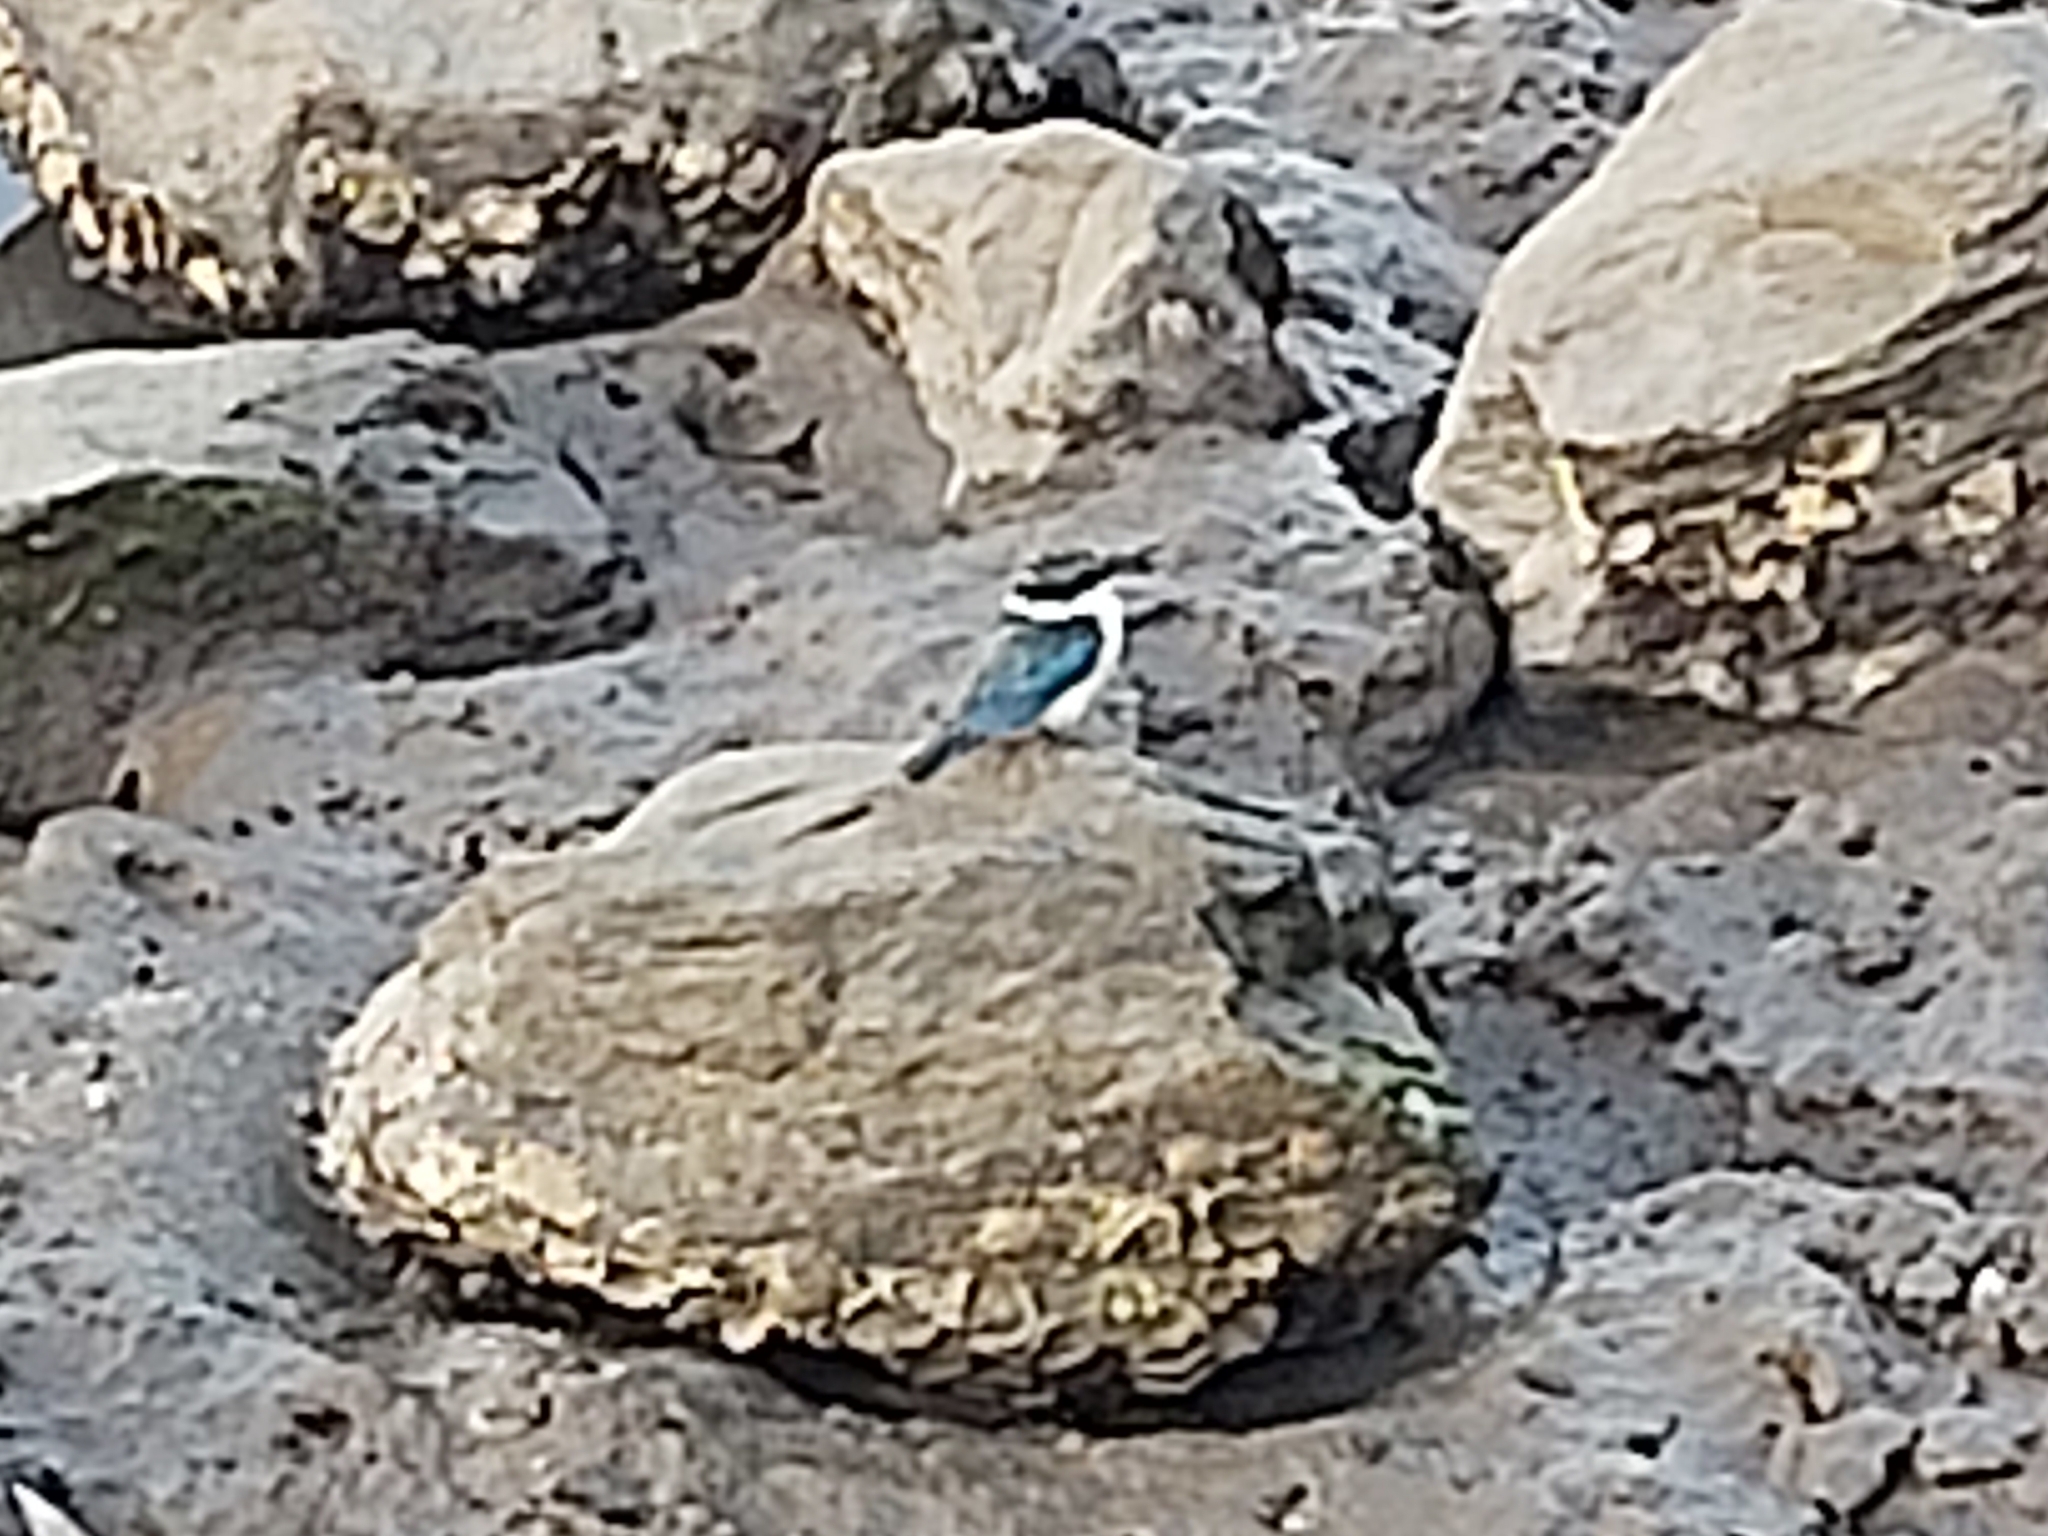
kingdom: Animalia
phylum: Chordata
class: Aves
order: Coraciiformes
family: Alcedinidae
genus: Todiramphus
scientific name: Todiramphus sanctus
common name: Sacred kingfisher
